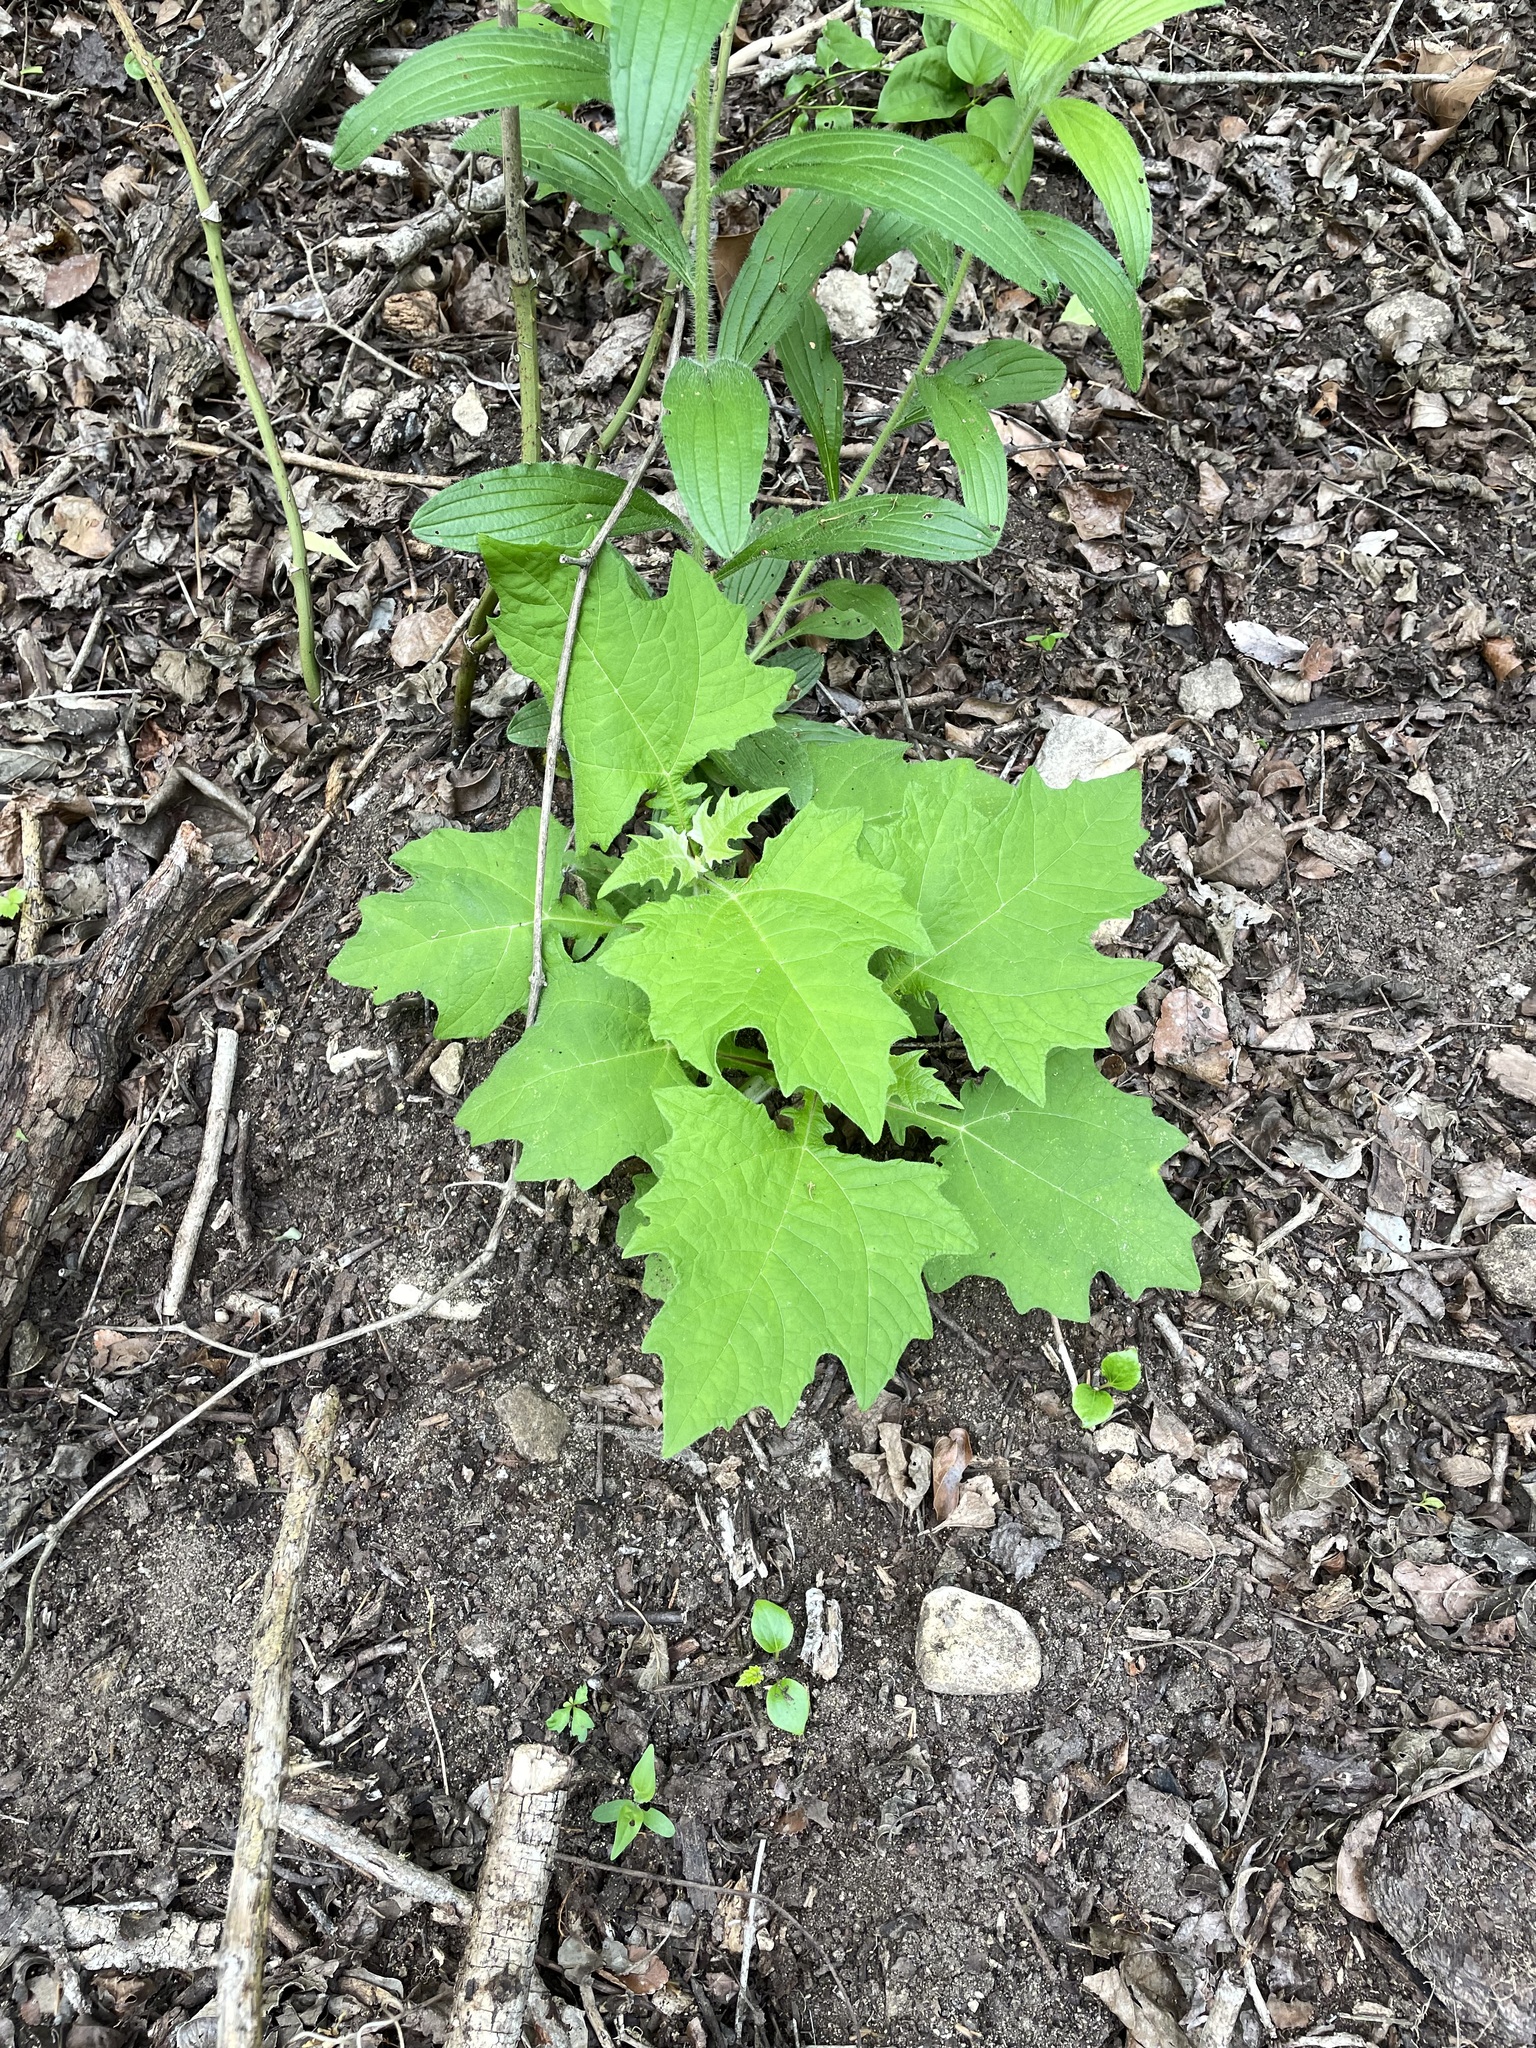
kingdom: Plantae
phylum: Tracheophyta
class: Magnoliopsida
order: Asterales
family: Asteraceae
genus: Smallanthus
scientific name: Smallanthus uvedalia
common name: Bear's-foot
